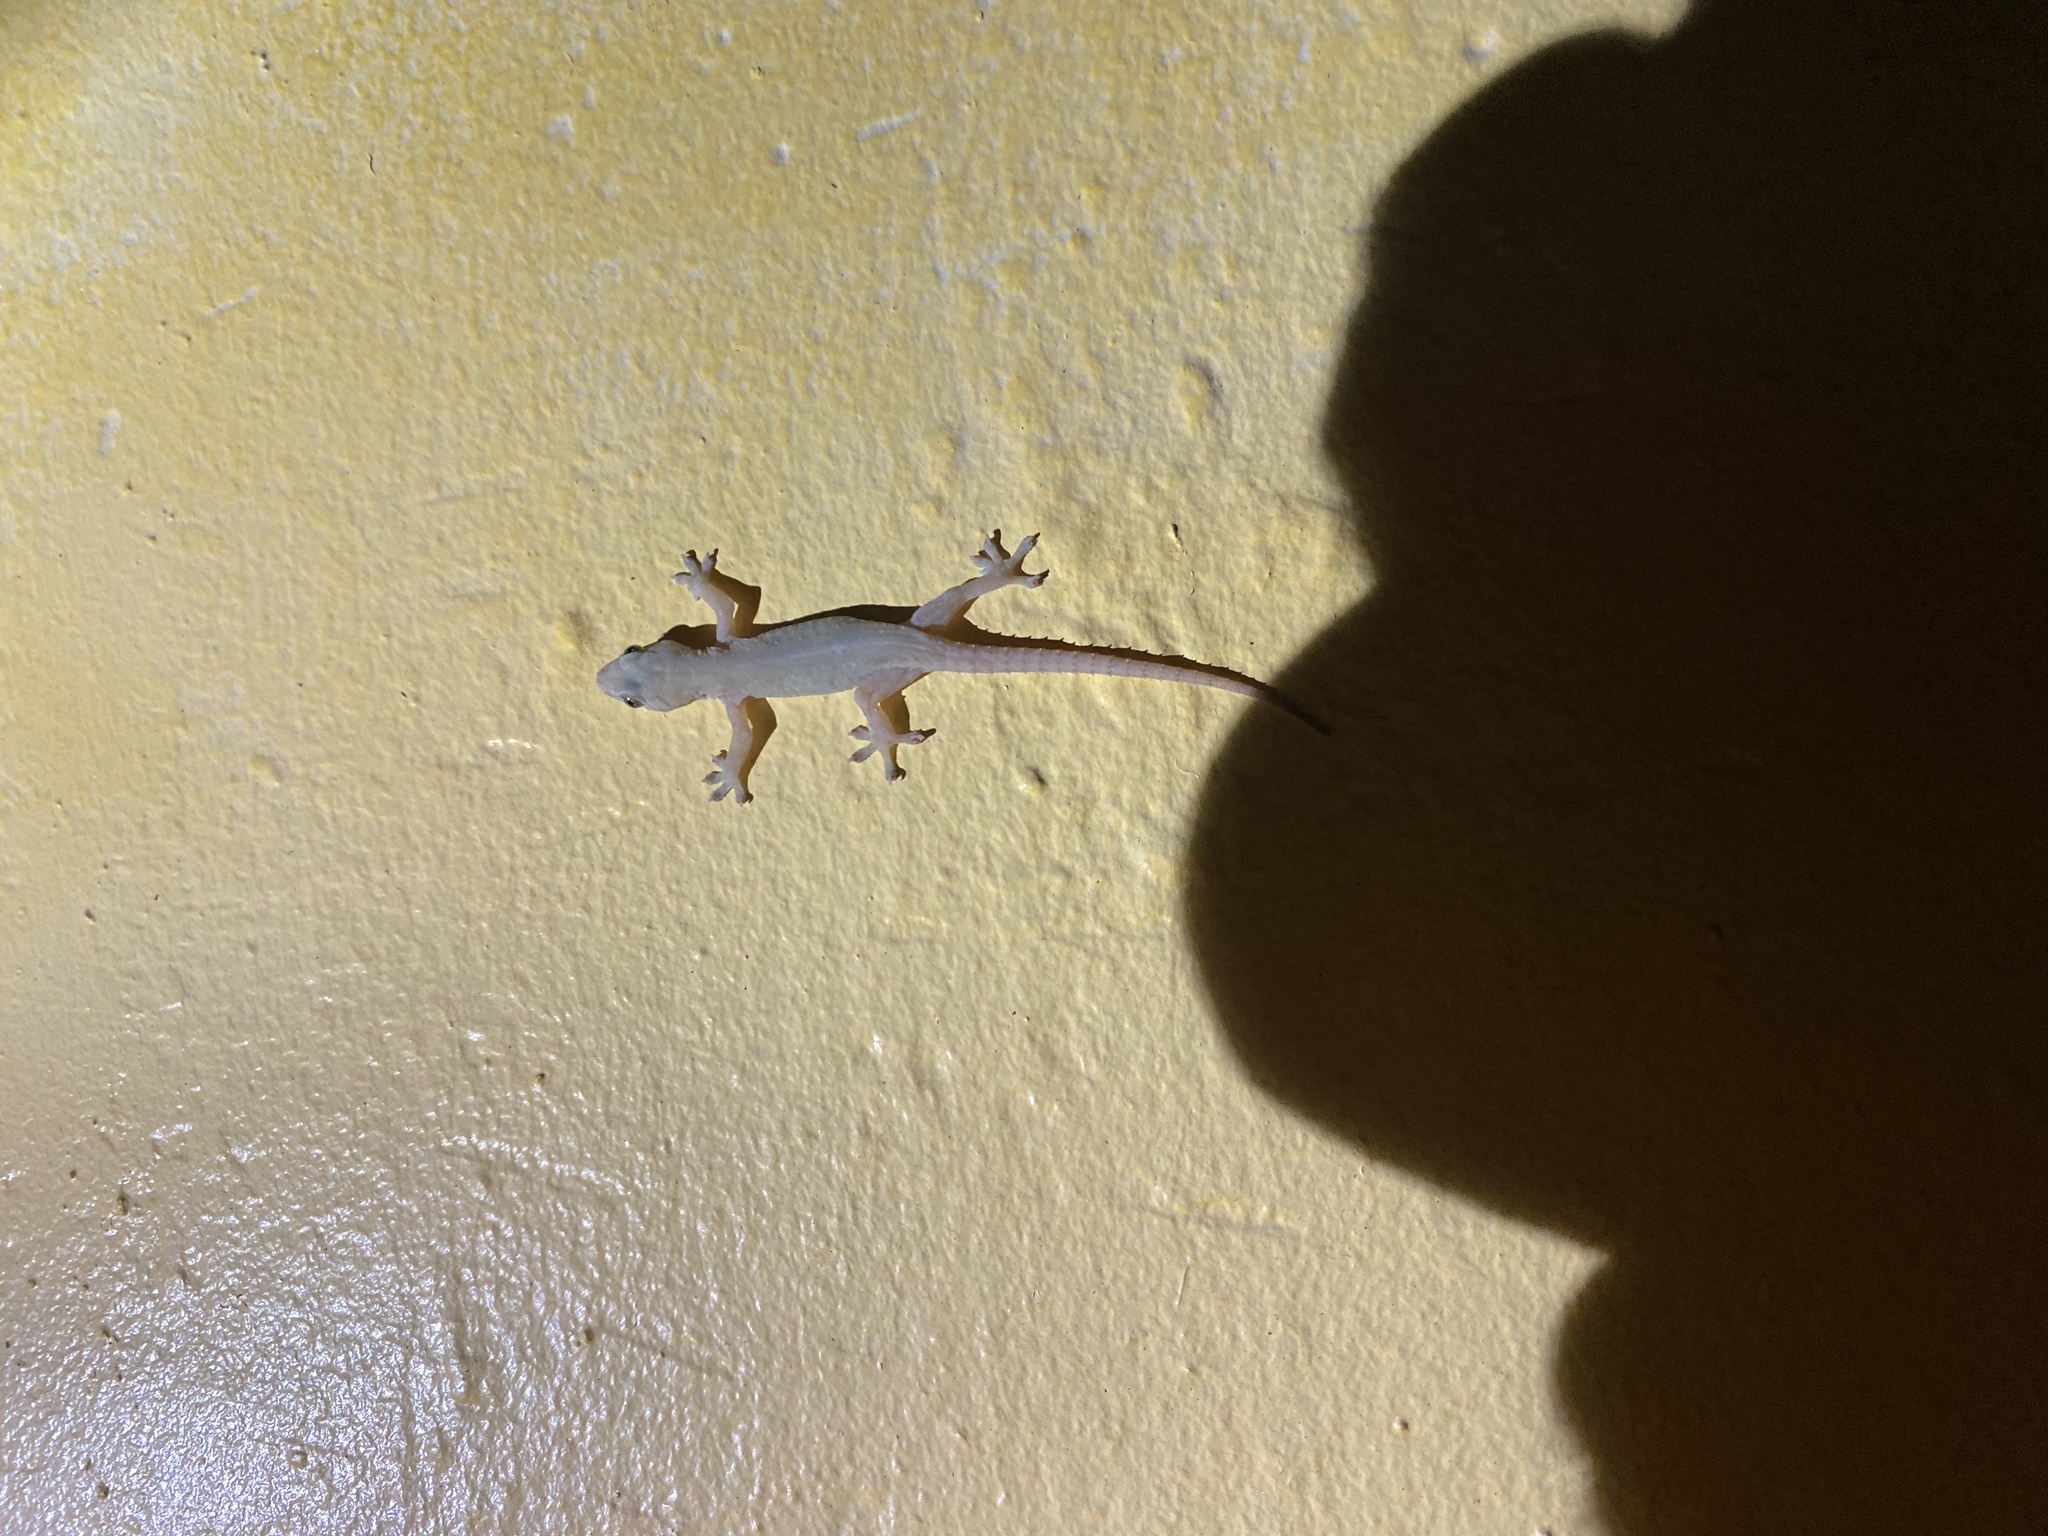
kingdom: Animalia
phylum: Chordata
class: Squamata
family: Gekkonidae
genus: Hemidactylus
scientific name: Hemidactylus frenatus
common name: Common house gecko
